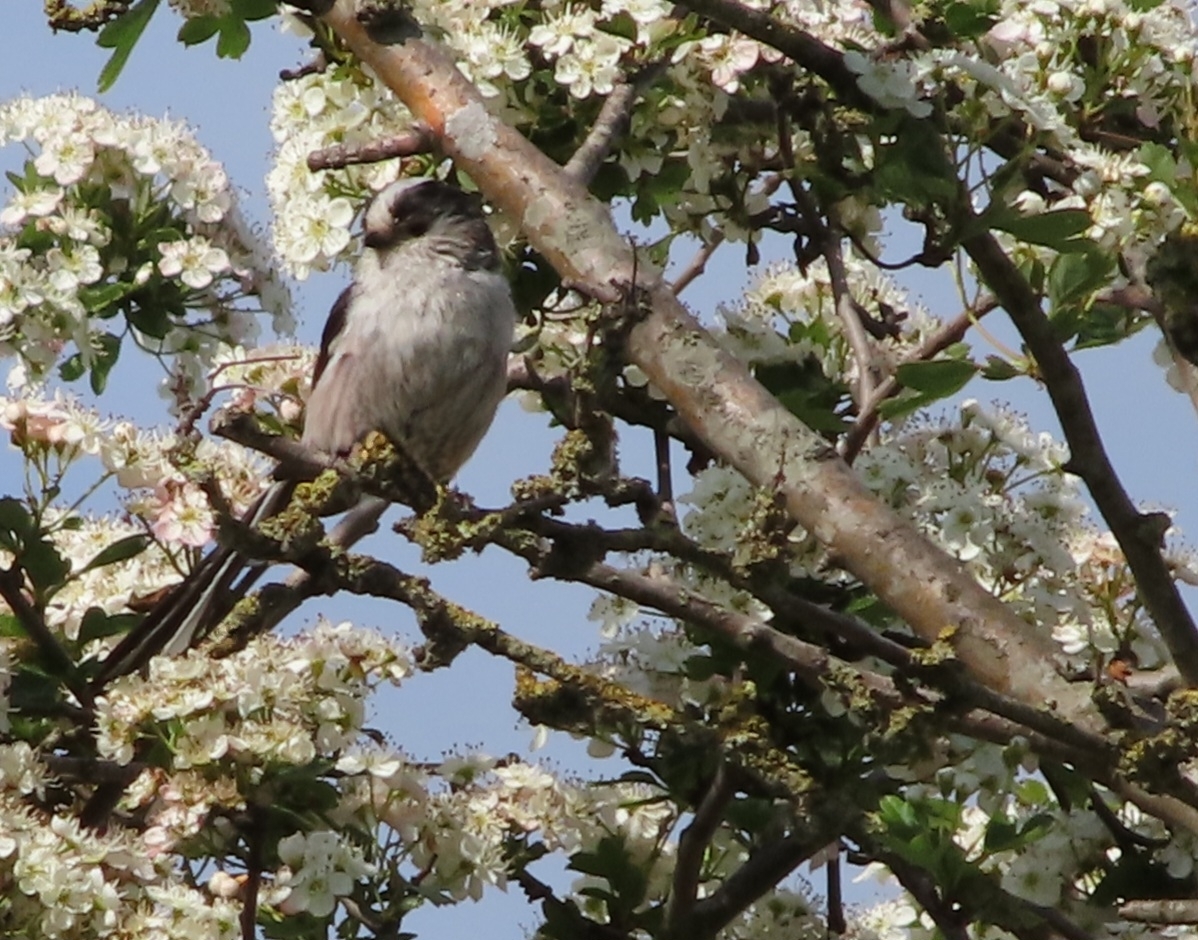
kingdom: Animalia
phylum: Chordata
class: Aves
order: Passeriformes
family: Aegithalidae
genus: Aegithalos
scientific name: Aegithalos caudatus
